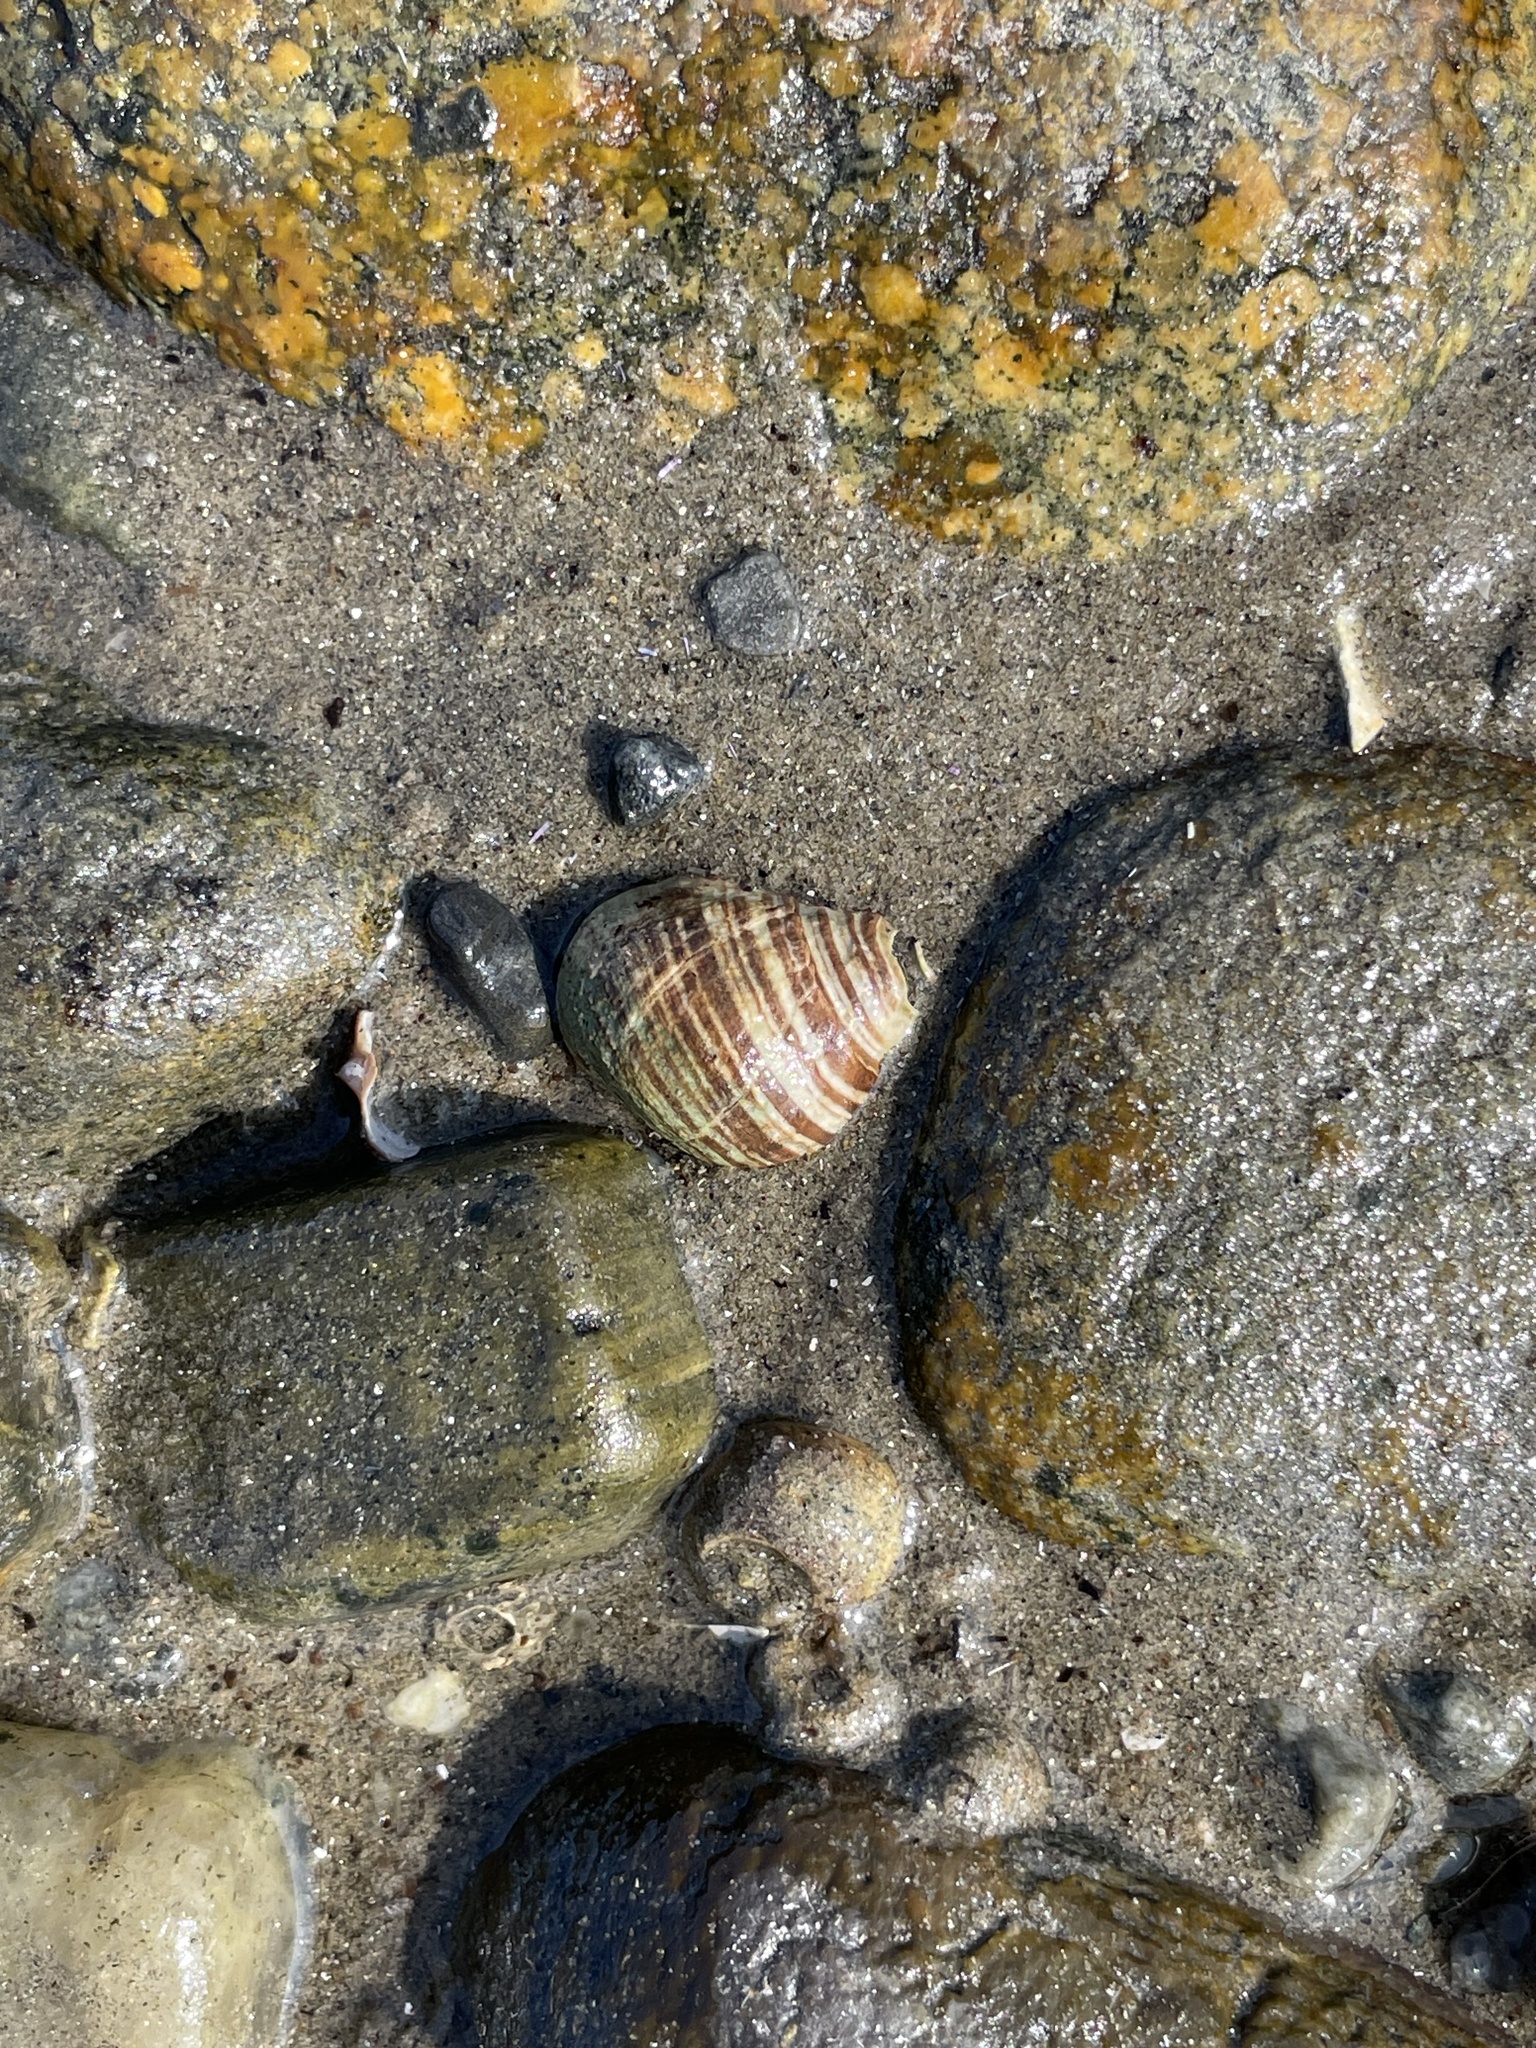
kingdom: Animalia
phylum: Mollusca
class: Gastropoda
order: Littorinimorpha
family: Littorinidae
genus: Littorina
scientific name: Littorina littorea
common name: Common periwinkle
